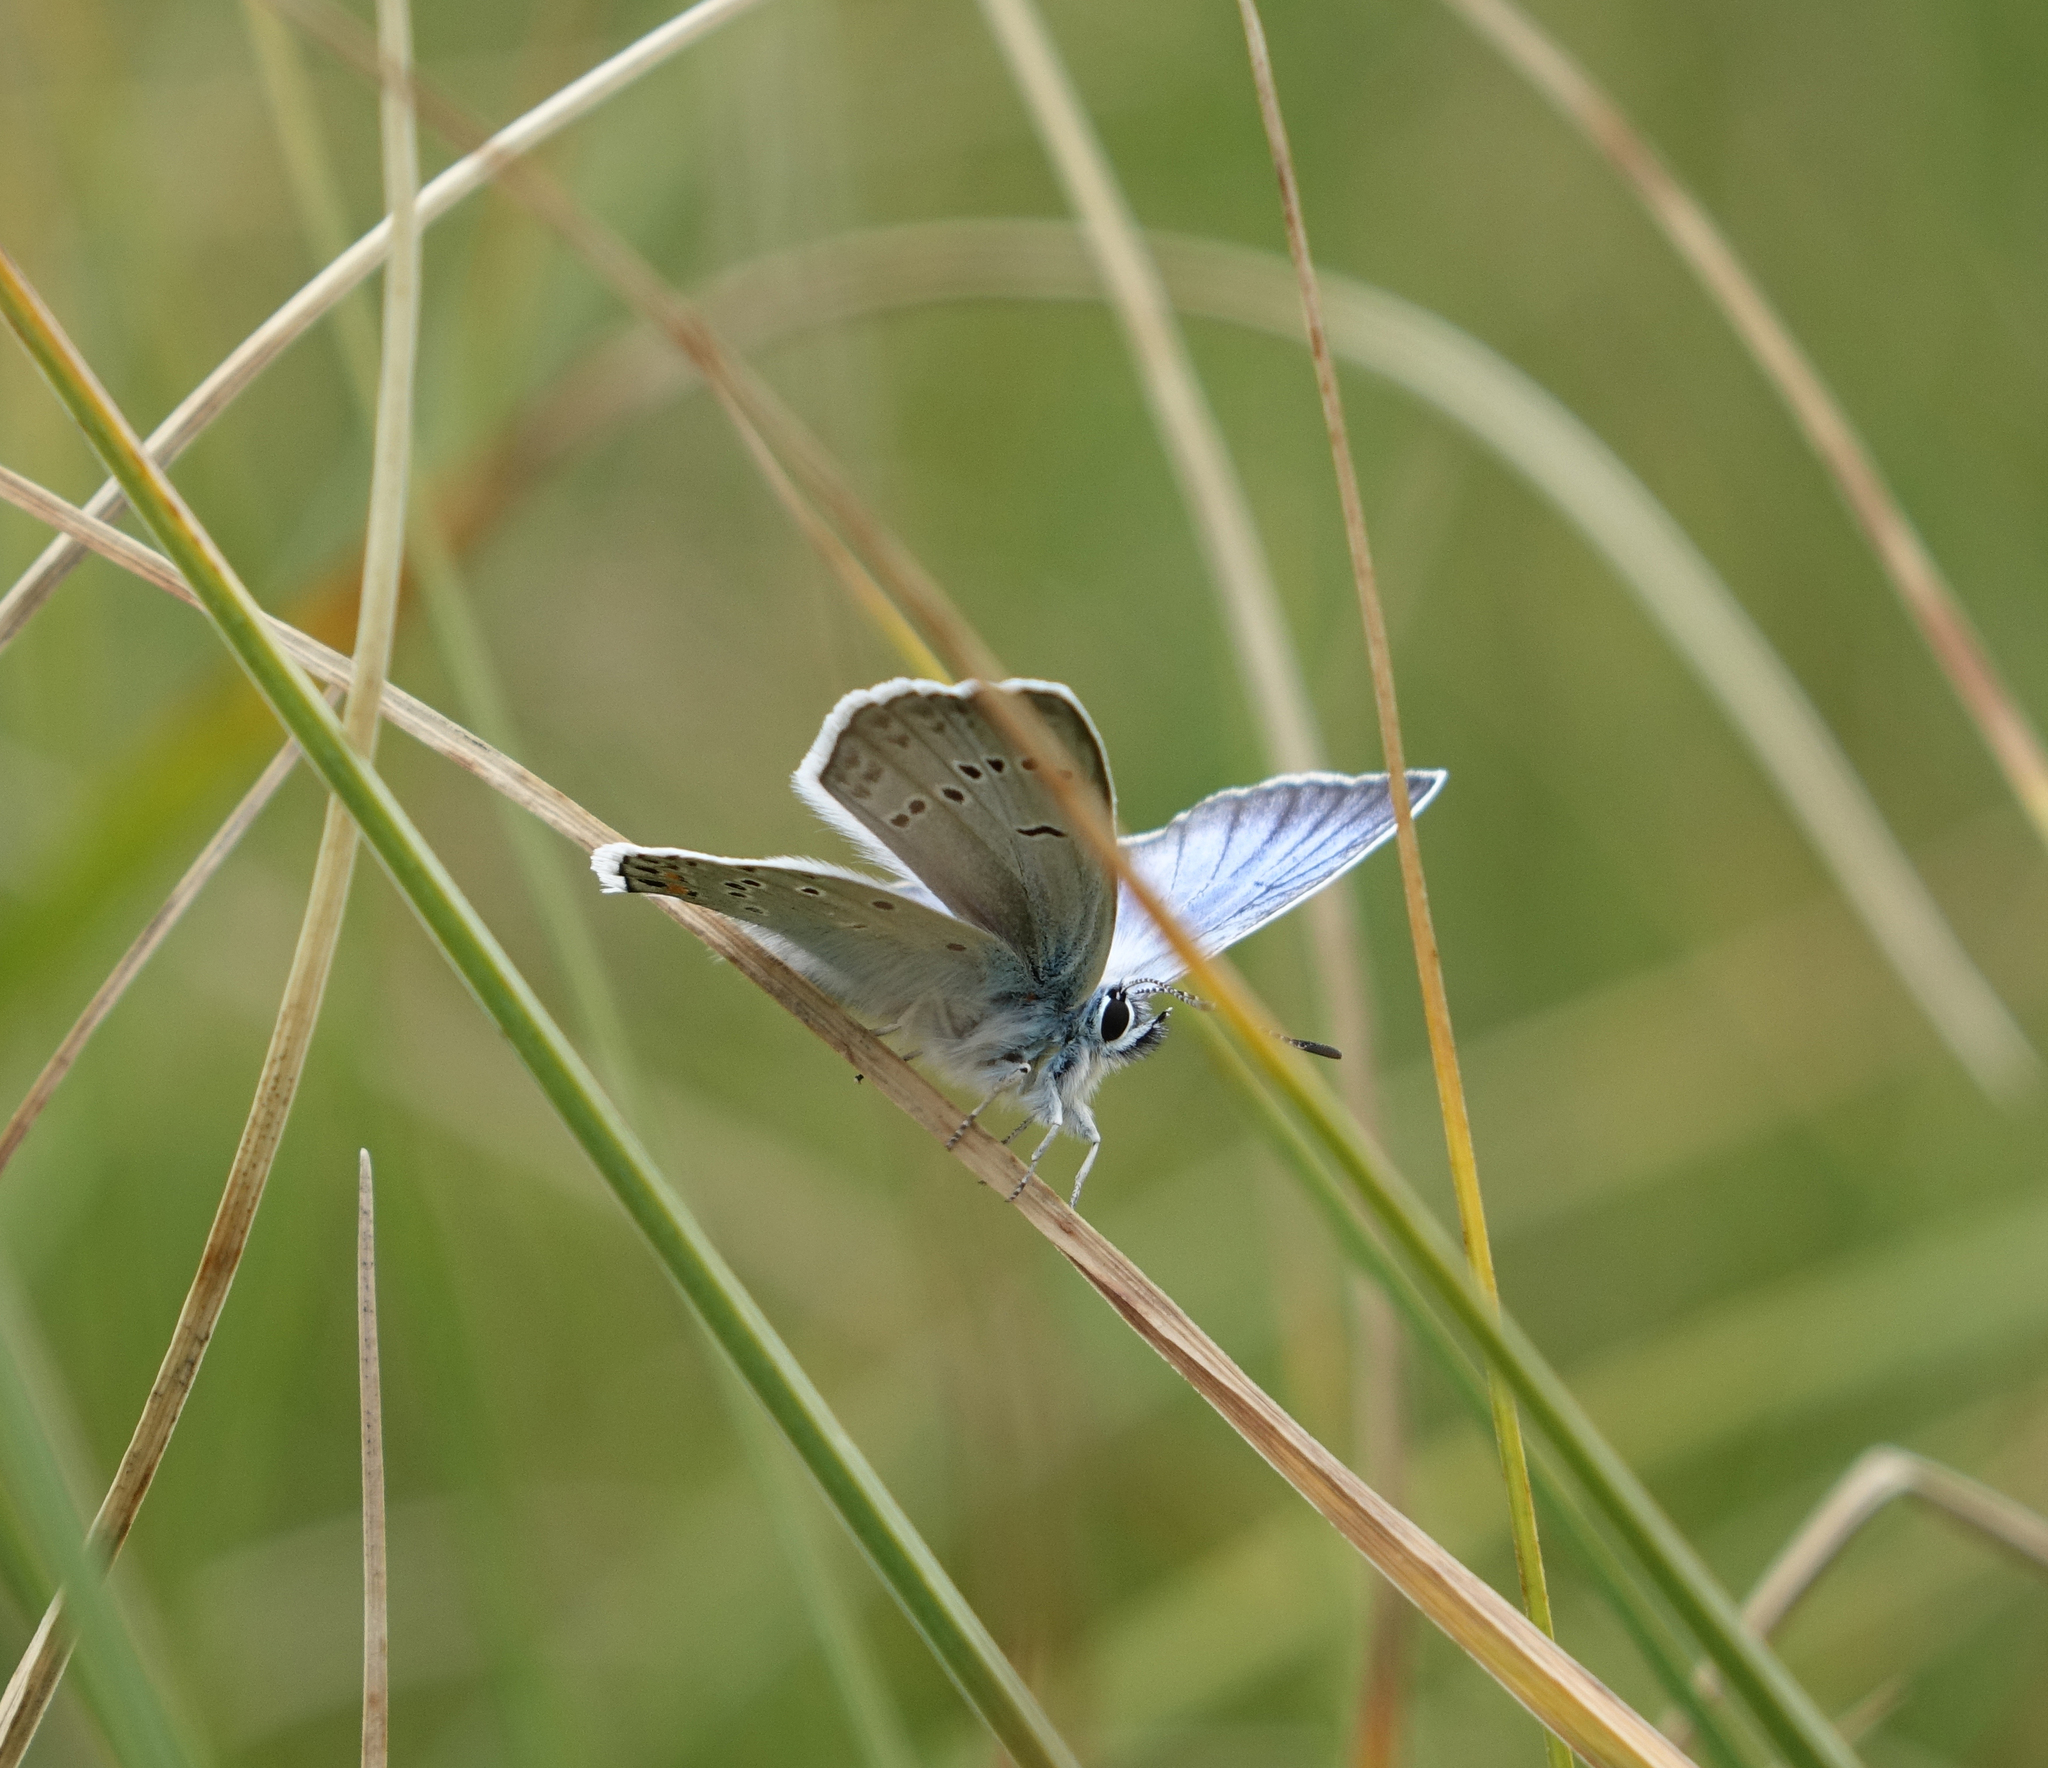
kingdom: Animalia
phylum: Arthropoda
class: Insecta
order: Lepidoptera
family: Lycaenidae
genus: Plebejus
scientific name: Plebejus amanda
